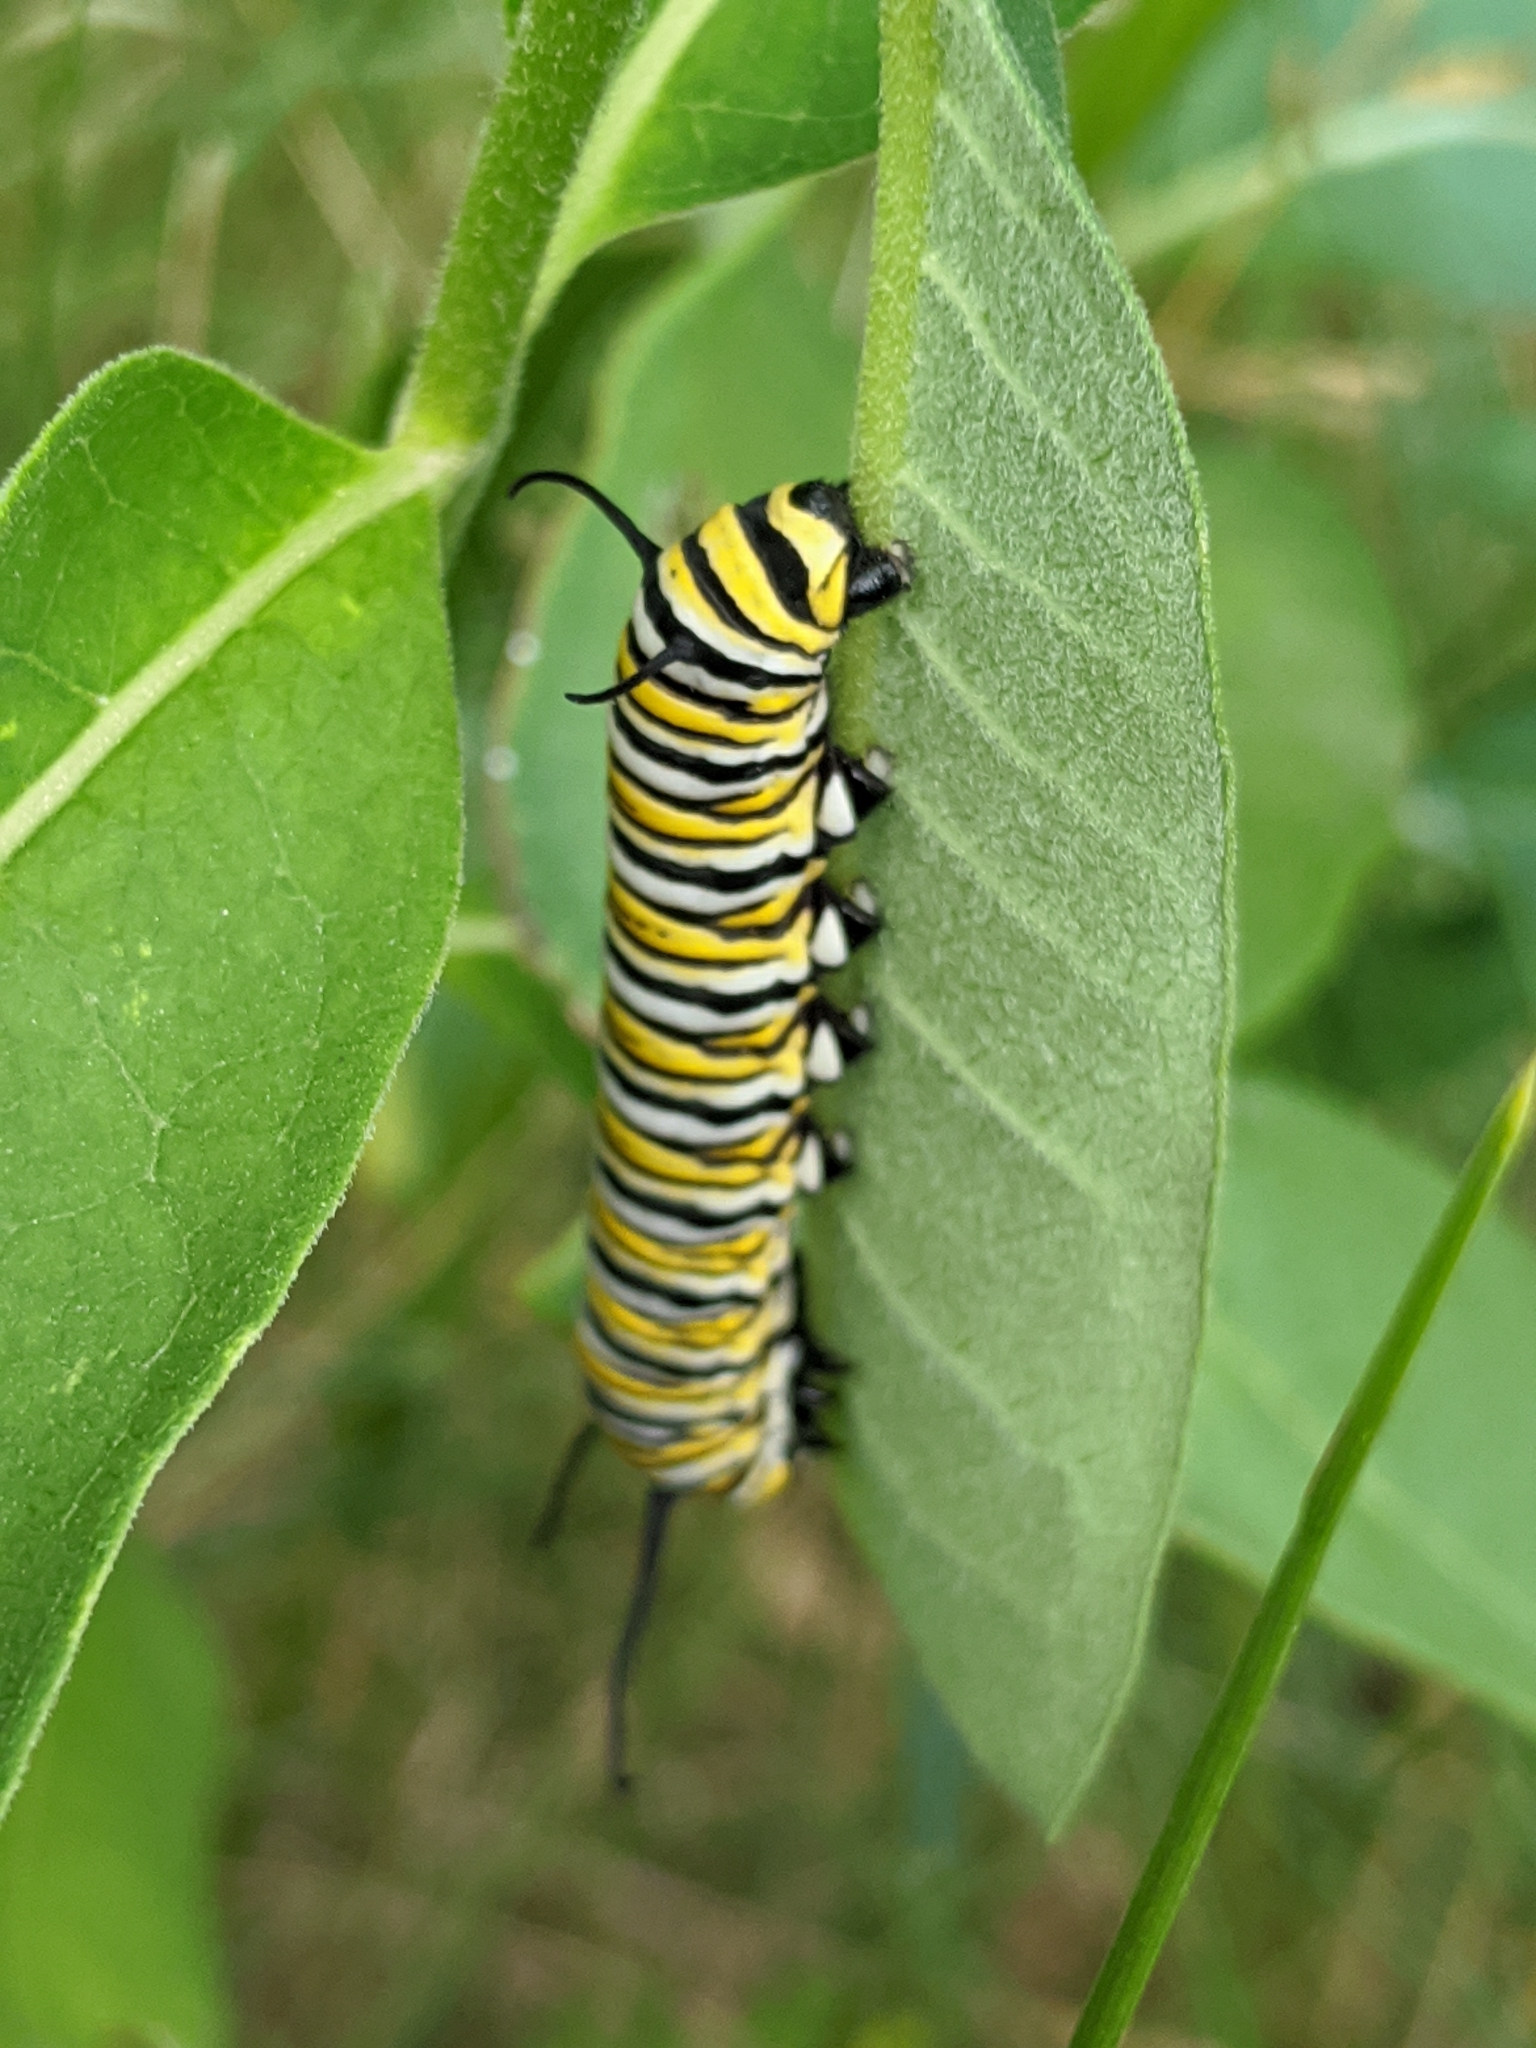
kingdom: Animalia
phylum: Arthropoda
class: Insecta
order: Lepidoptera
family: Nymphalidae
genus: Danaus
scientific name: Danaus plexippus
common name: Monarch
